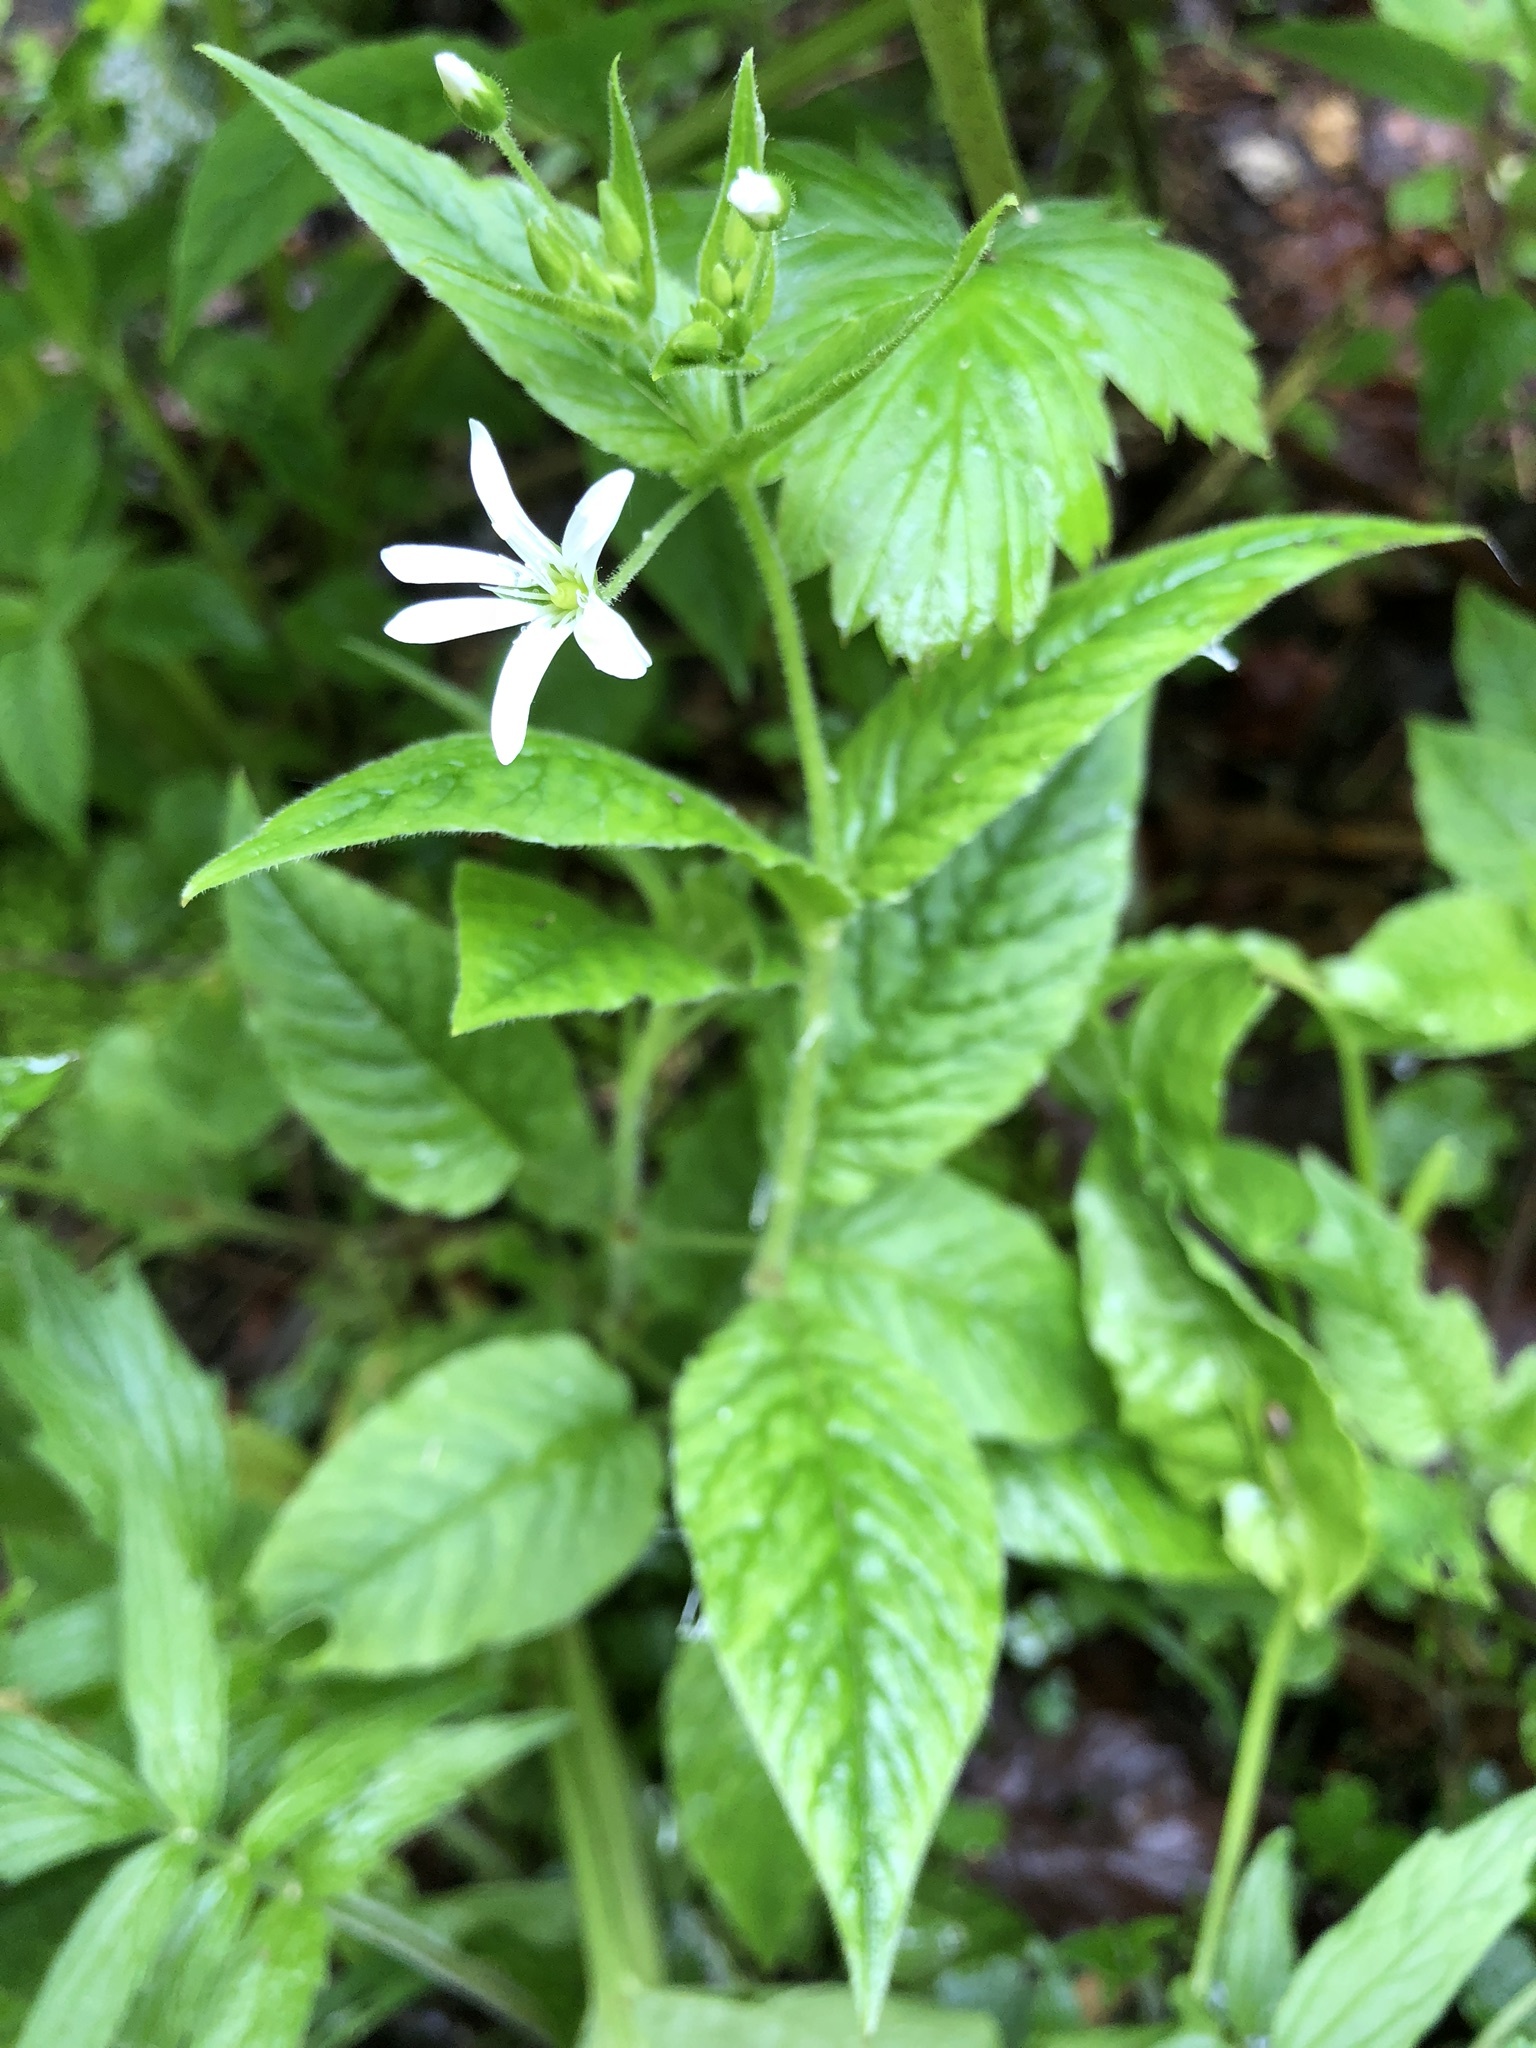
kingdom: Plantae
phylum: Tracheophyta
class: Magnoliopsida
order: Caryophyllales
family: Caryophyllaceae
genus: Stellaria
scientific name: Stellaria nemorum
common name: Wood stitchwort
